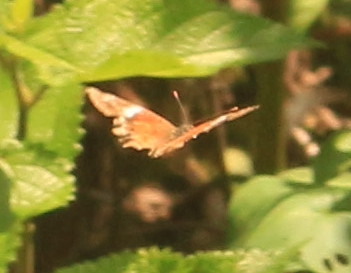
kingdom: Animalia
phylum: Arthropoda
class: Insecta
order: Lepidoptera
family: Nymphalidae
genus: Anartia
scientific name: Anartia amathea
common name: Red peacock
